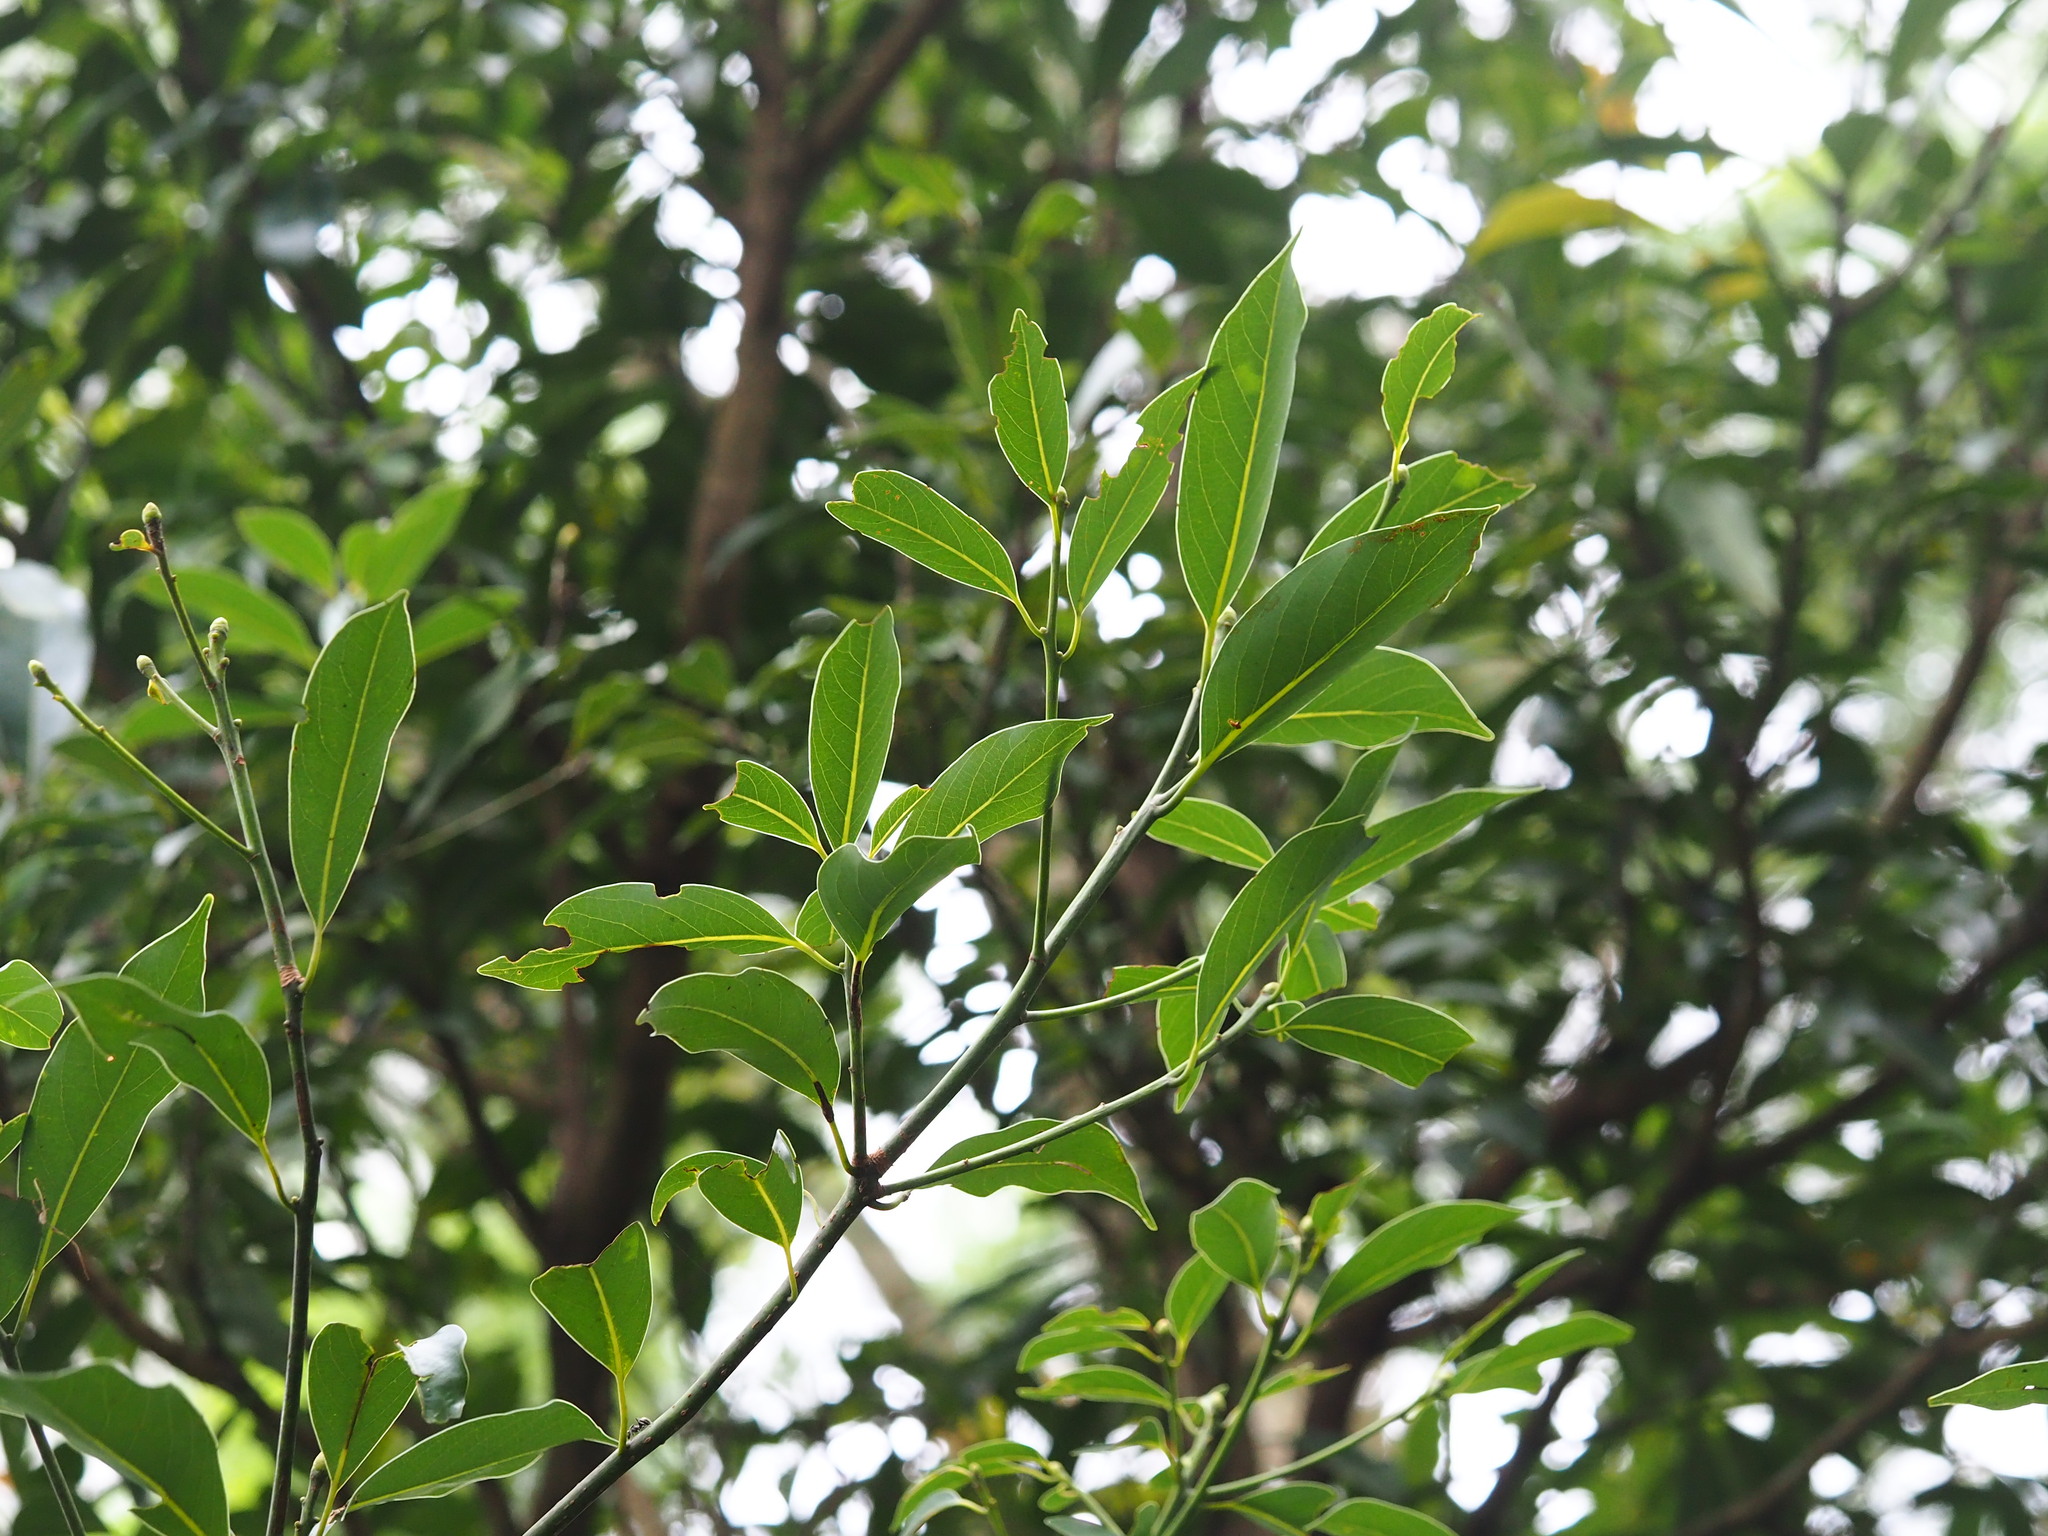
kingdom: Plantae
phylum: Tracheophyta
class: Magnoliopsida
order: Laurales
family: Lauraceae
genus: Machilus
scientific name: Machilus thunbergii
